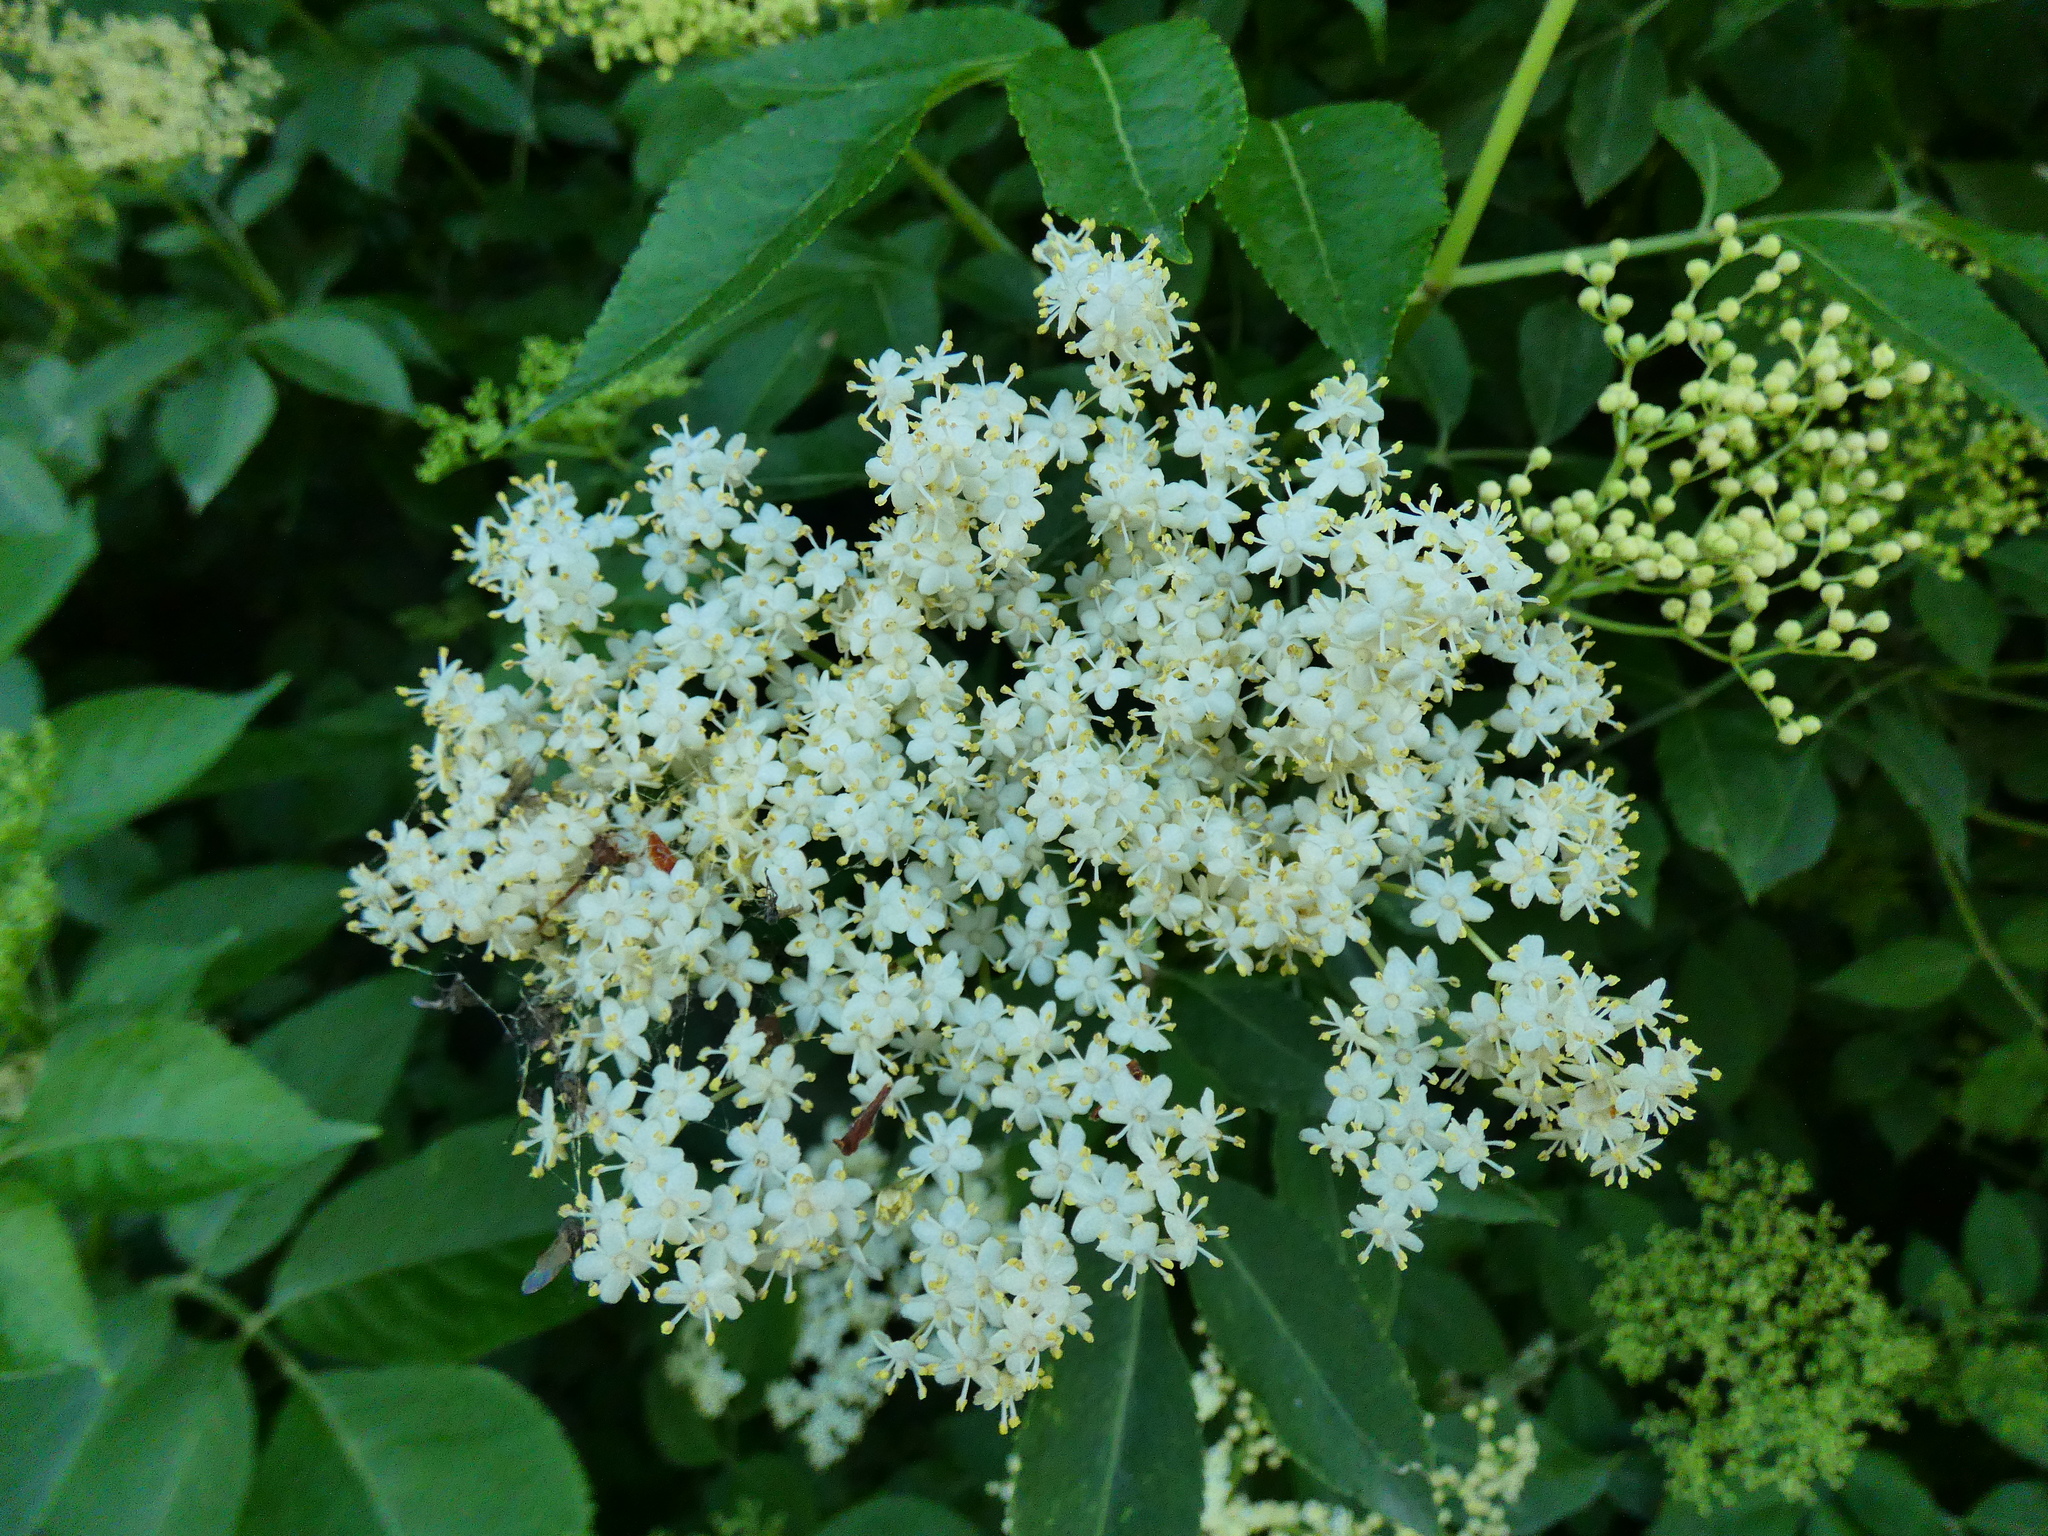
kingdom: Plantae
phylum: Tracheophyta
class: Magnoliopsida
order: Dipsacales
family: Viburnaceae
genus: Sambucus
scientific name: Sambucus nigra
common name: Elder
